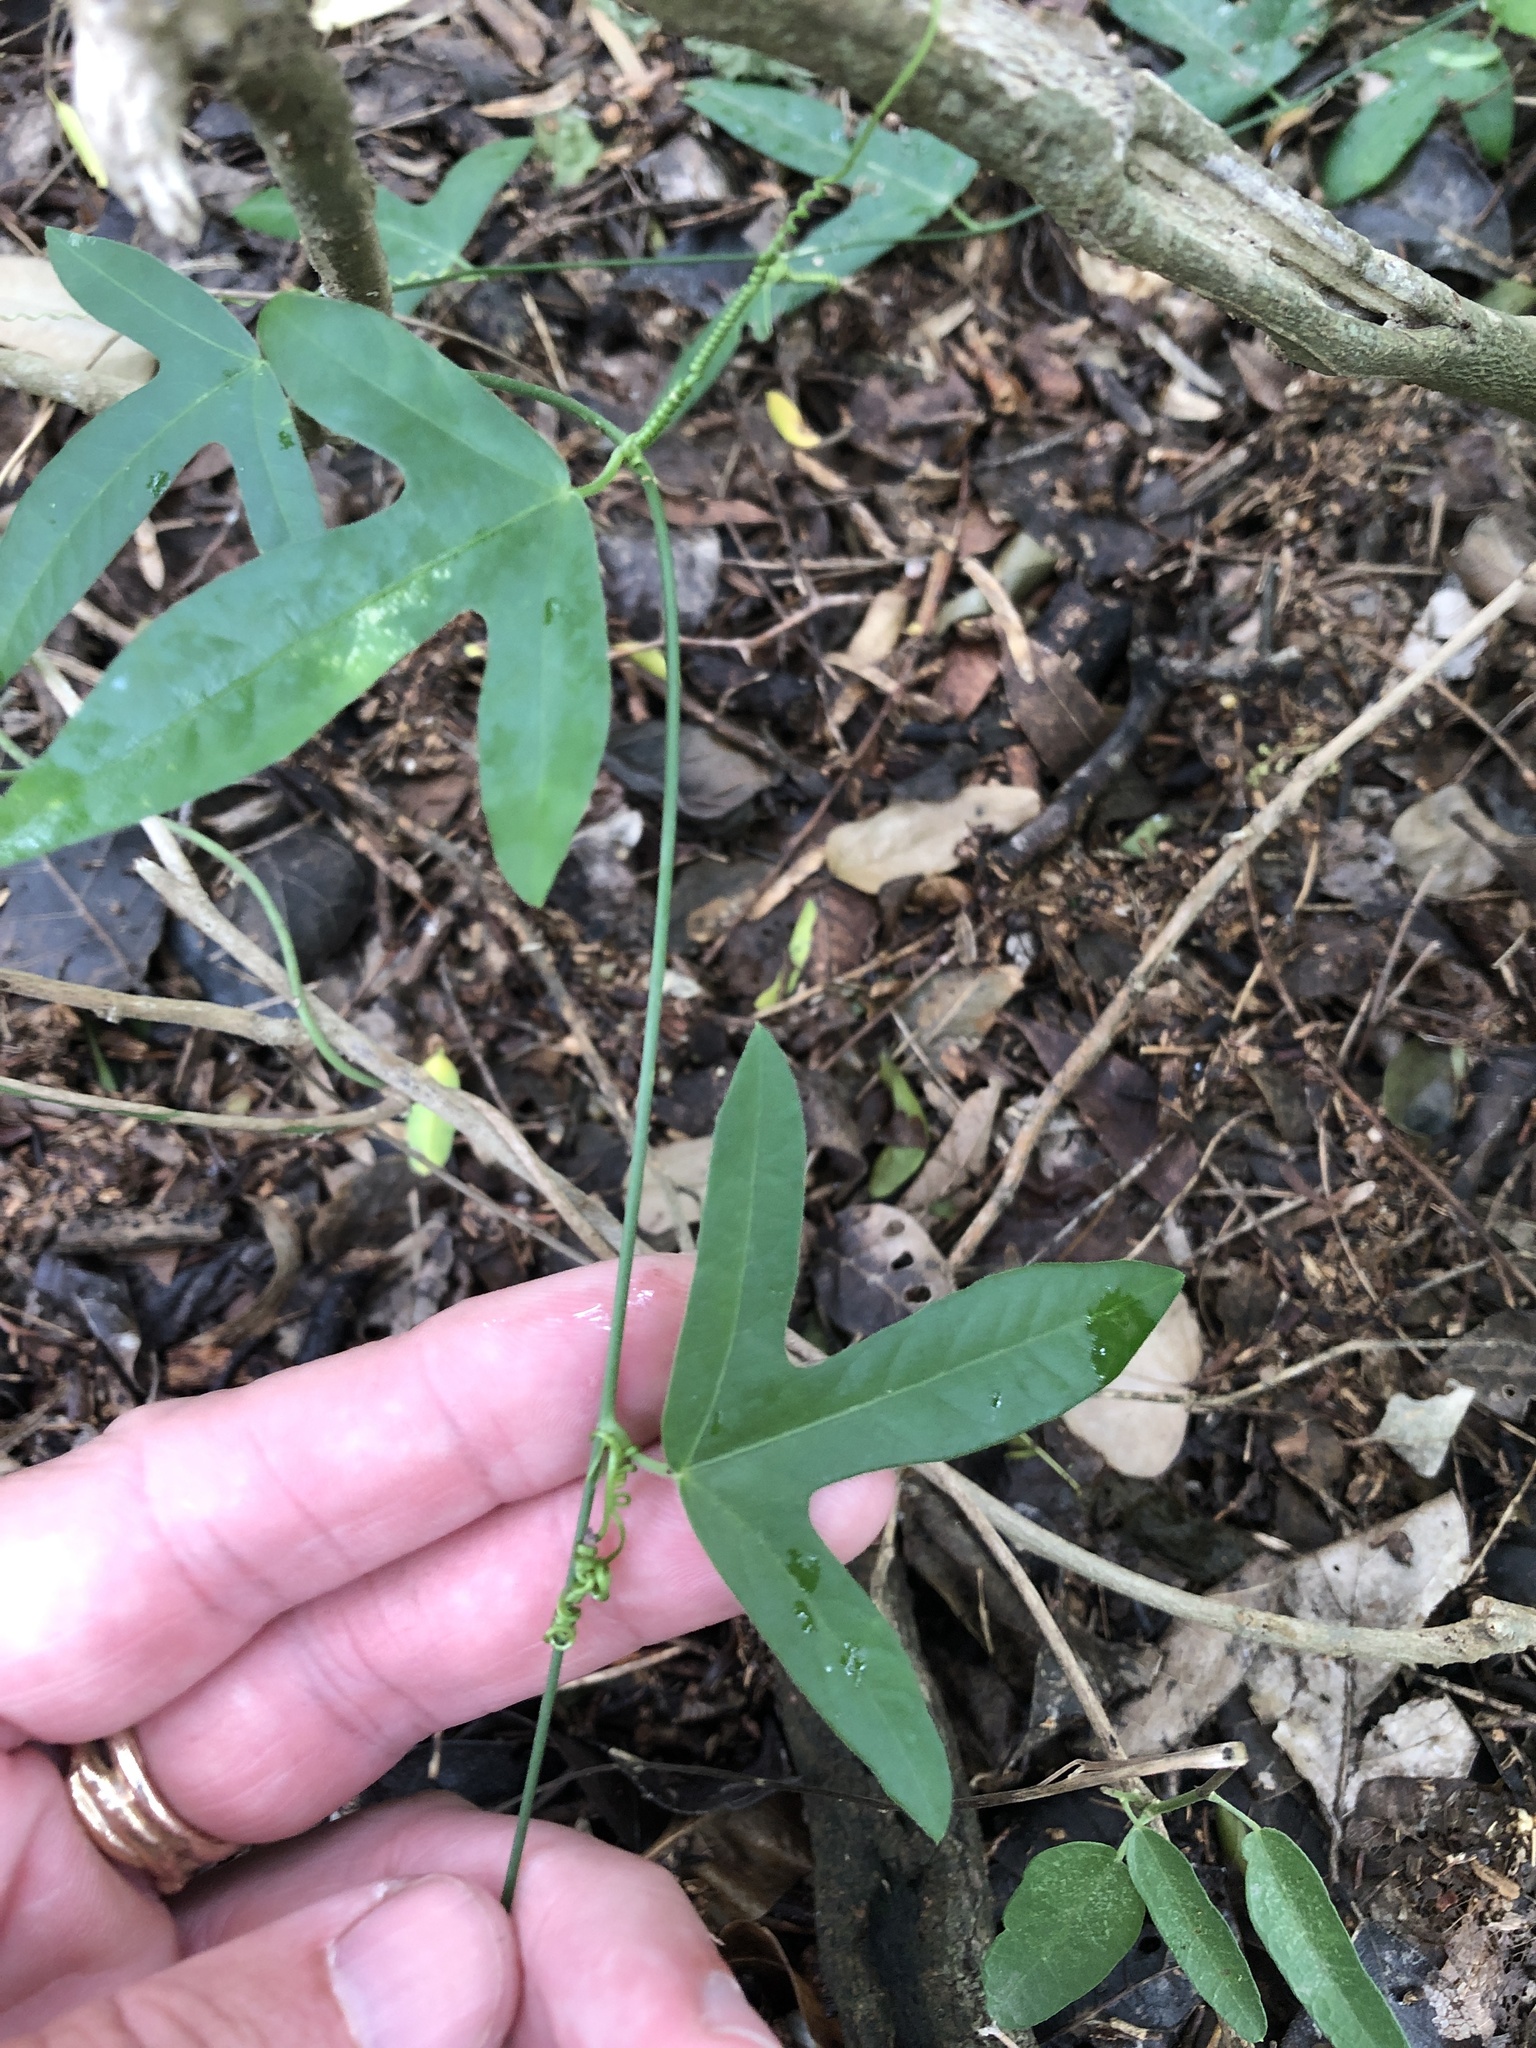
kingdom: Plantae
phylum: Tracheophyta
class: Magnoliopsida
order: Malpighiales
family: Passifloraceae
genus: Passiflora
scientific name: Passiflora pallida
